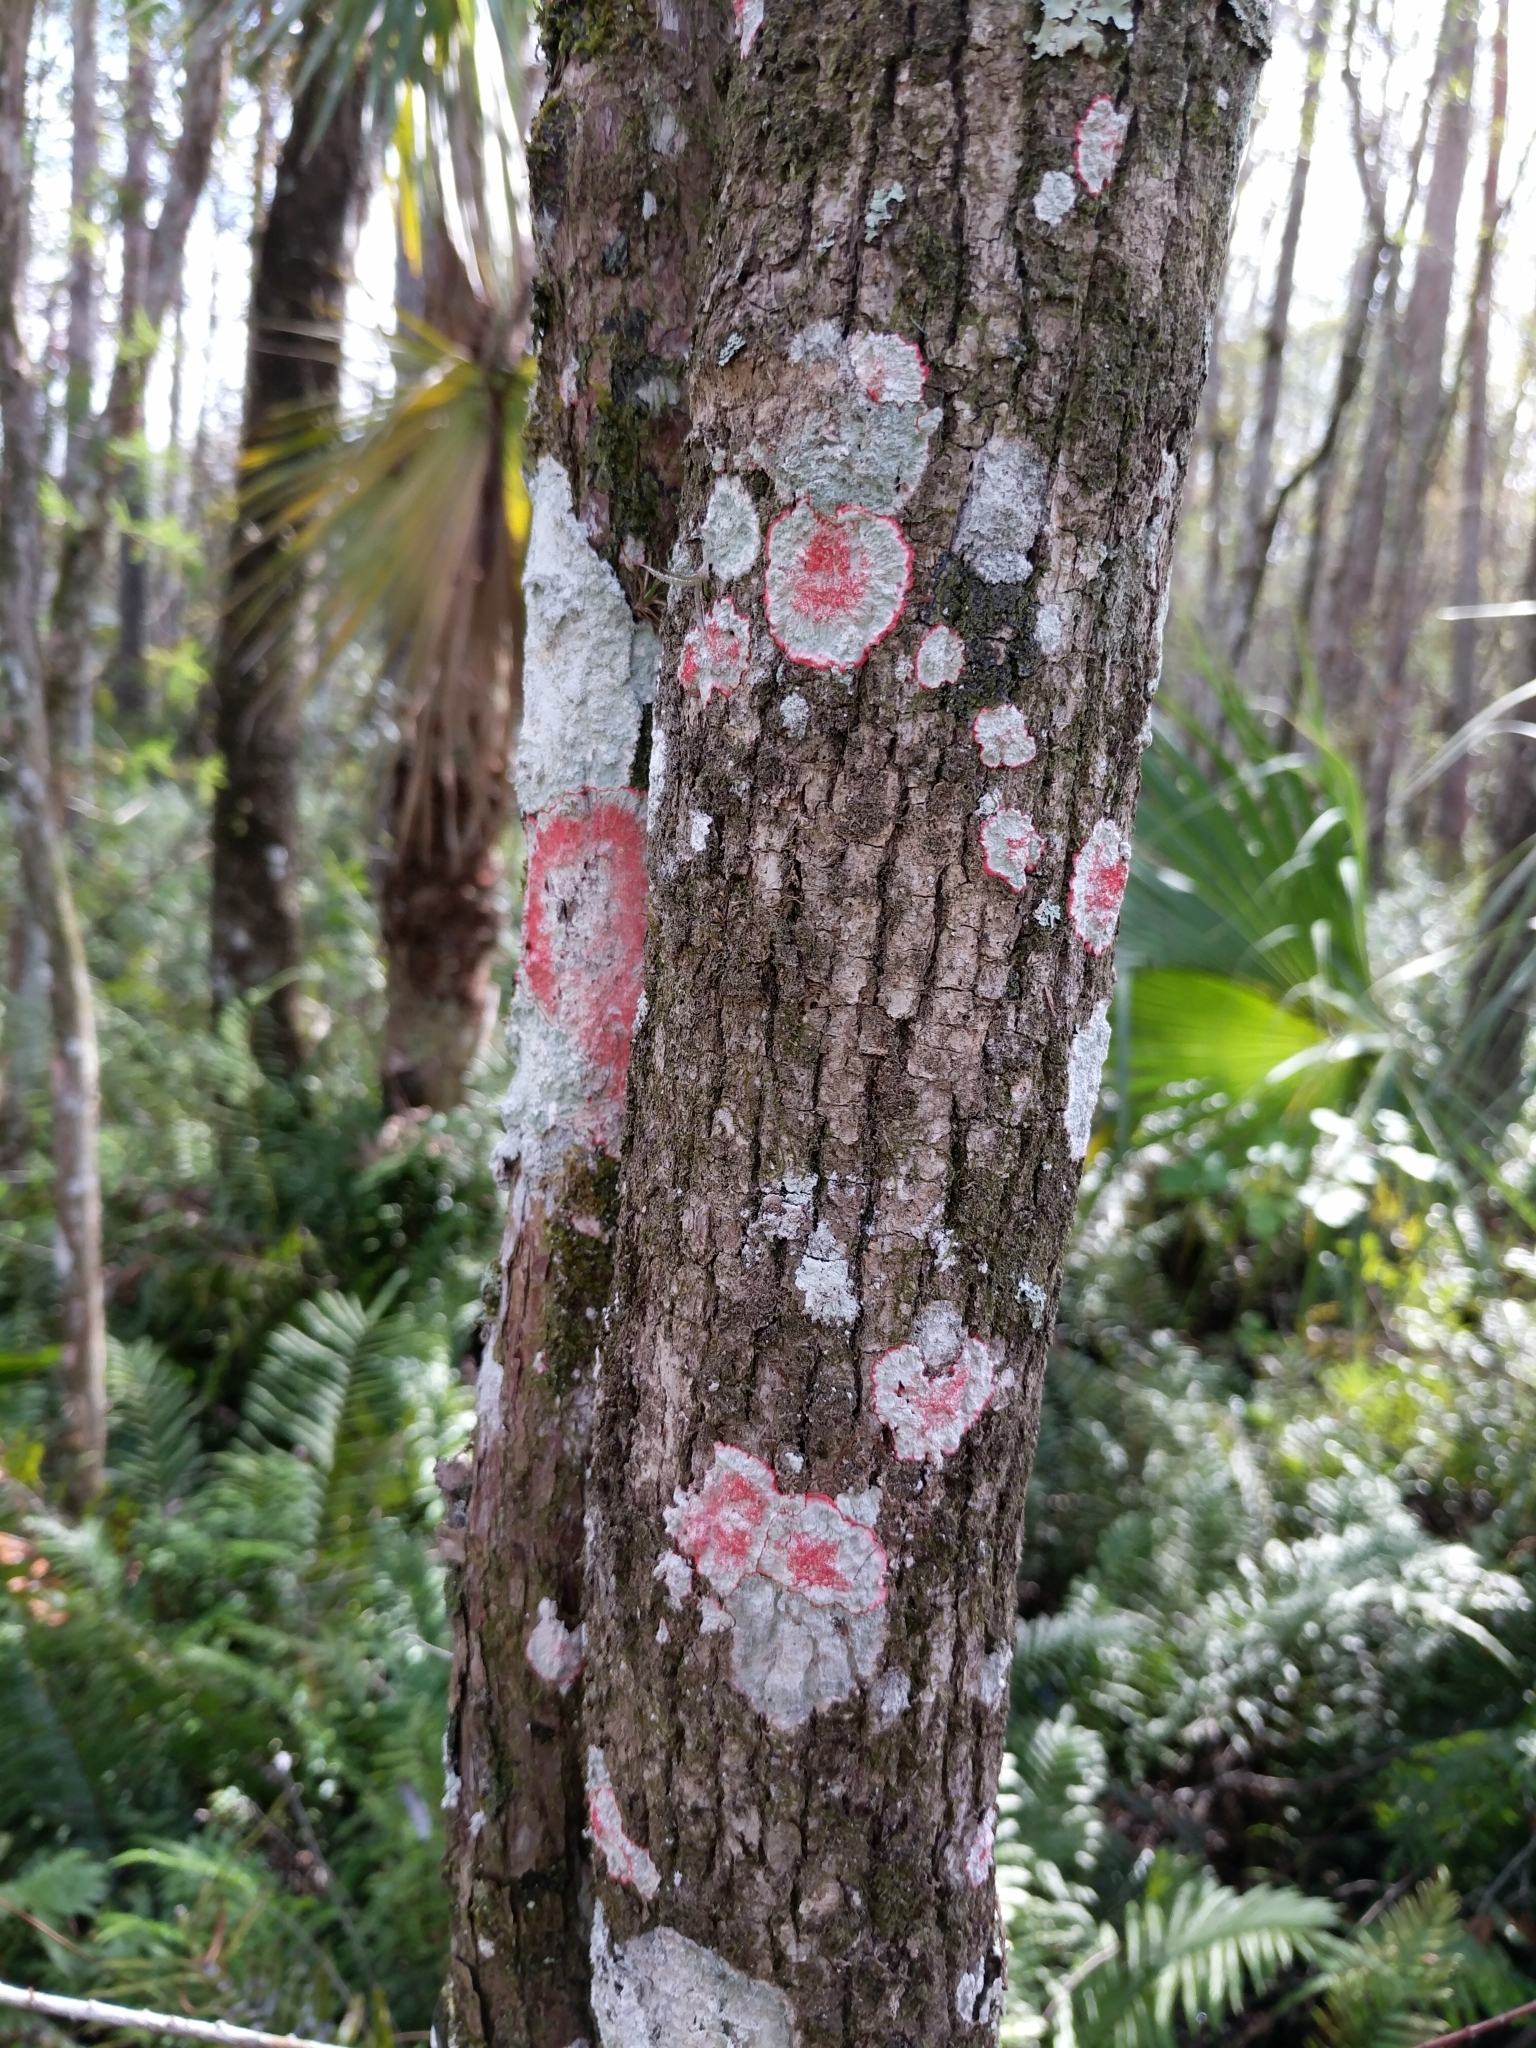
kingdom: Fungi
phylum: Ascomycota
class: Arthoniomycetes
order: Arthoniales
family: Arthoniaceae
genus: Herpothallon
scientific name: Herpothallon rubrocinctum
